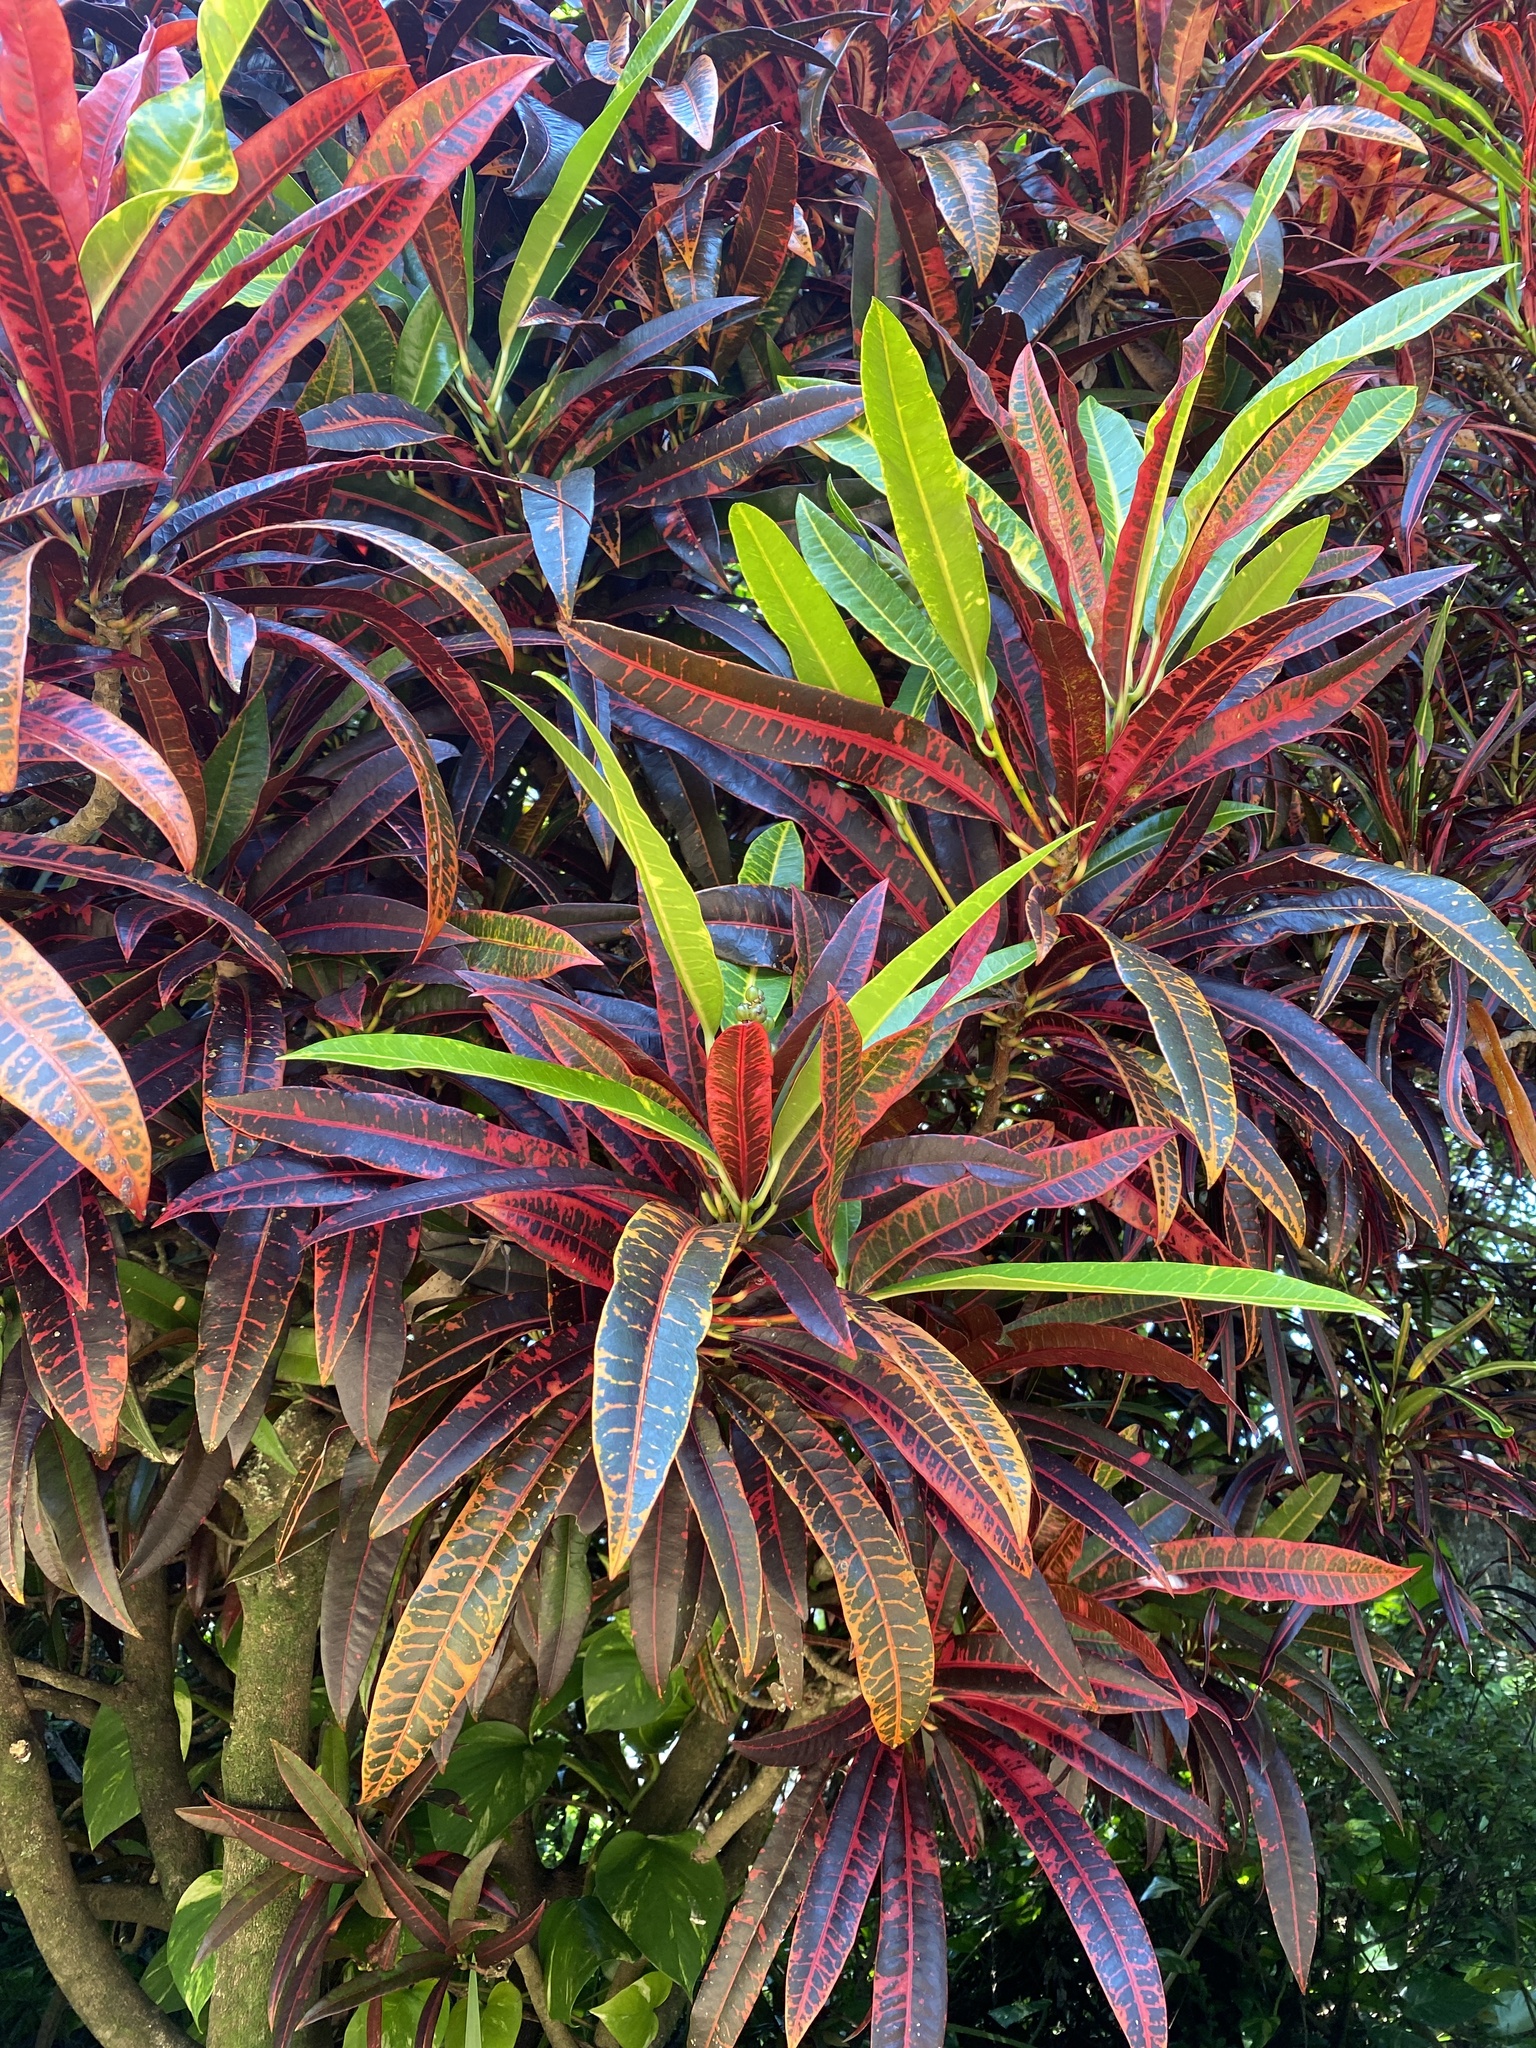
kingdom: Plantae
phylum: Tracheophyta
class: Magnoliopsida
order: Malpighiales
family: Euphorbiaceae
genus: Codiaeum
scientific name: Codiaeum variegatum
